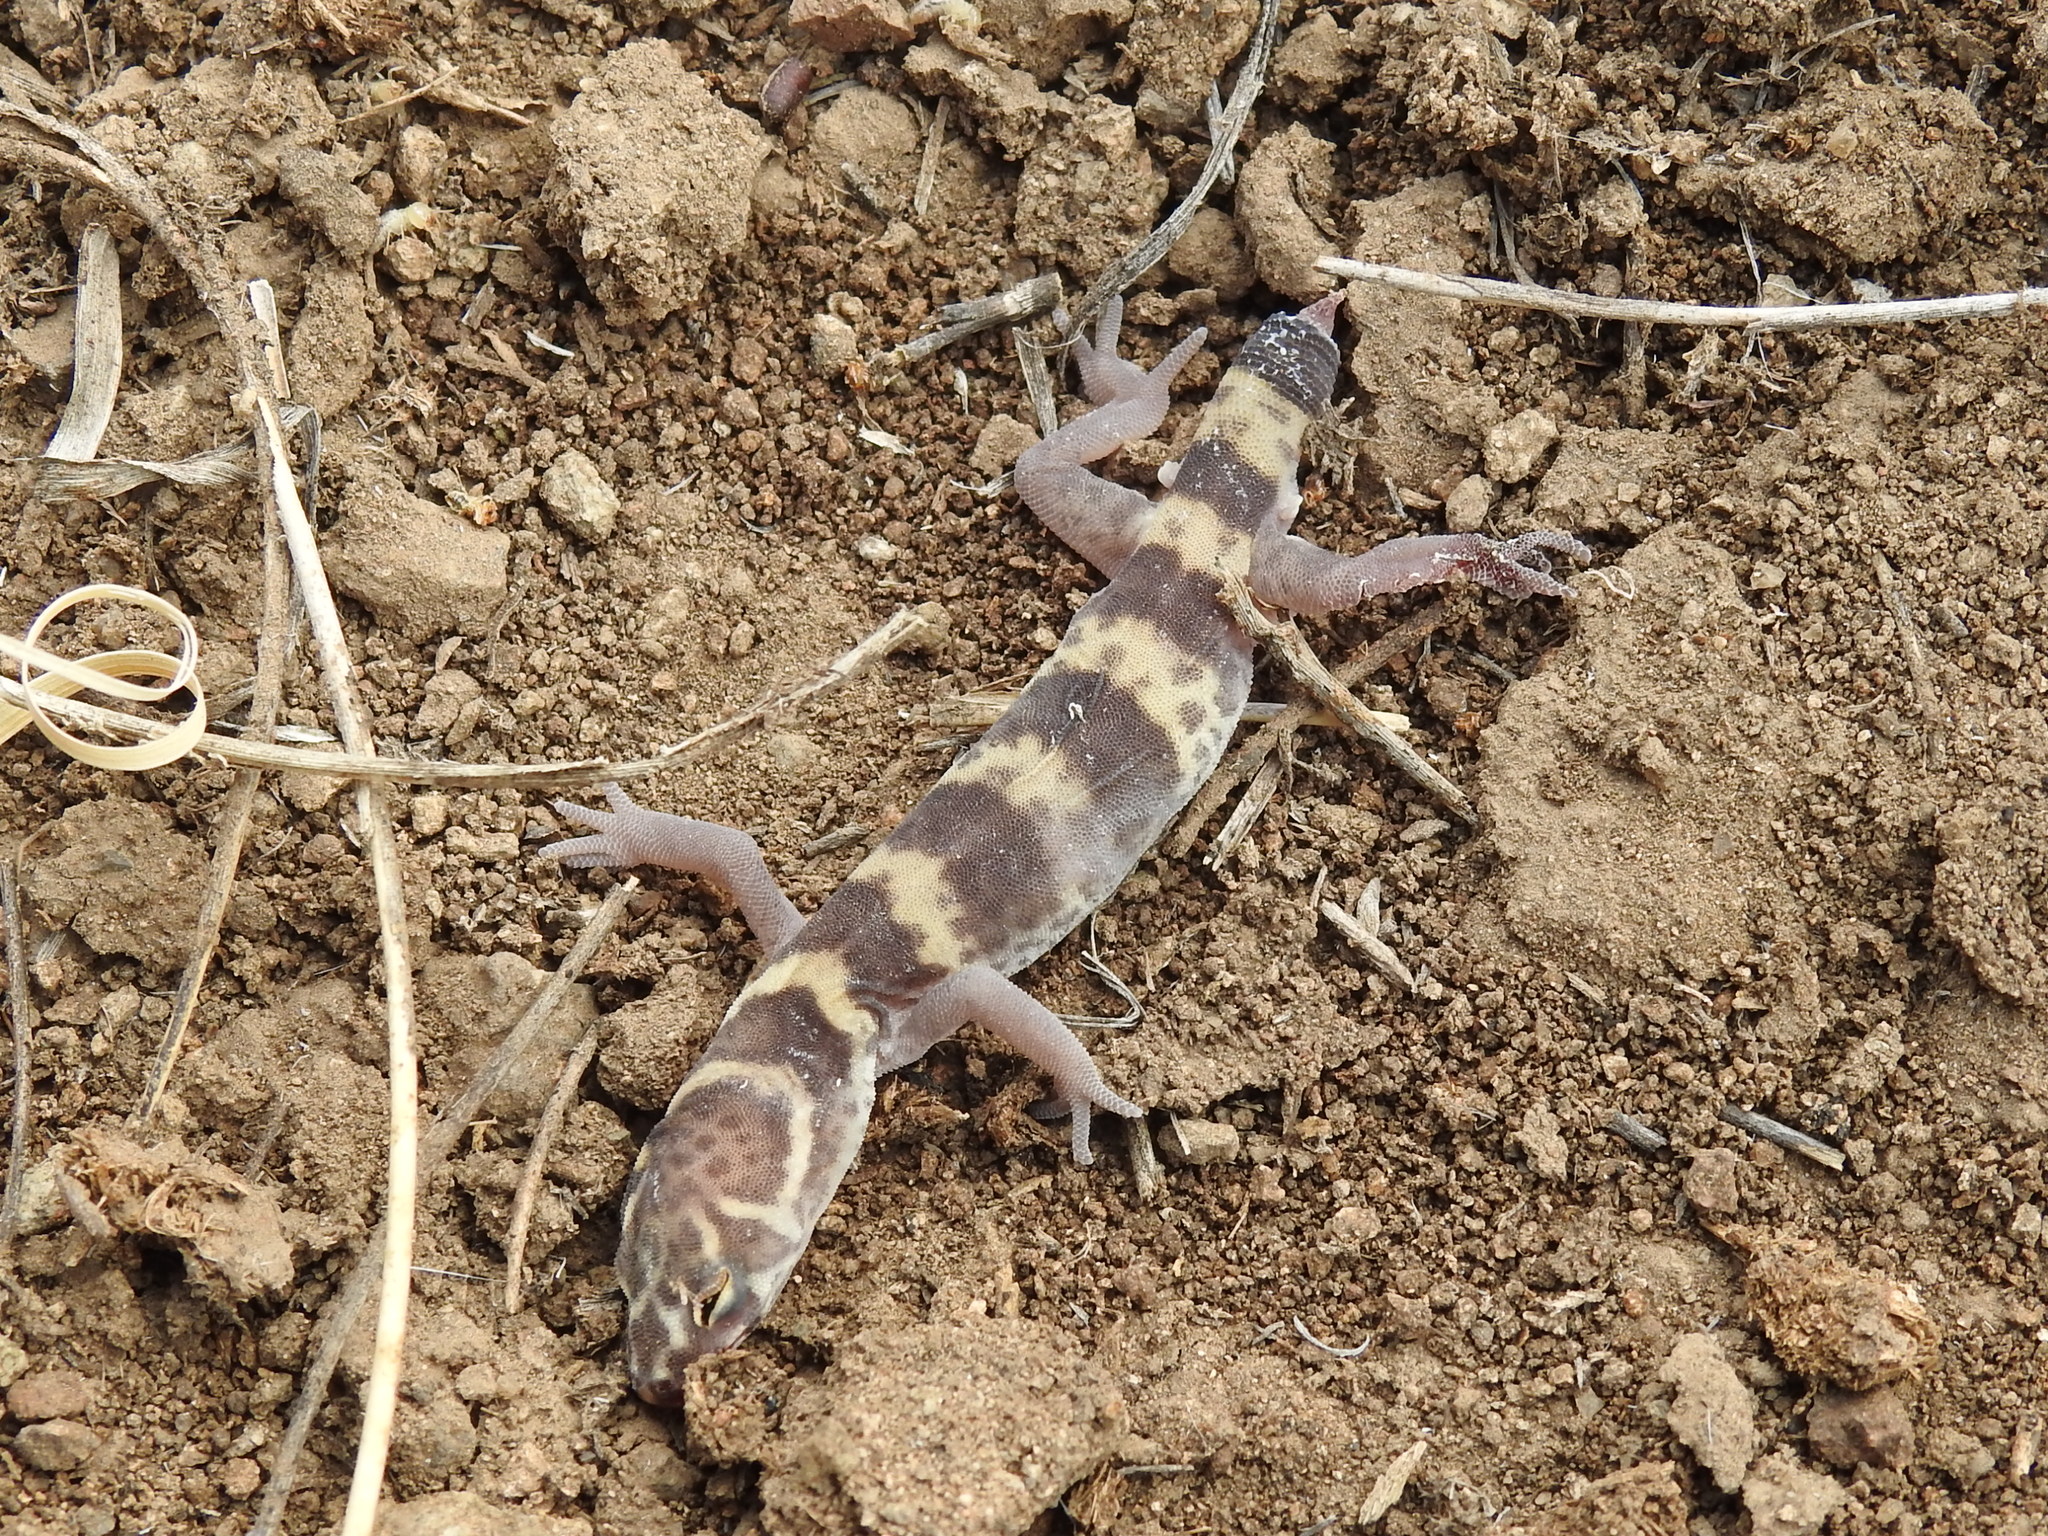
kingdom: Animalia
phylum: Chordata
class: Squamata
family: Eublepharidae
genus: Coleonyx
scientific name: Coleonyx brevis
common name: Texas banded gecko
